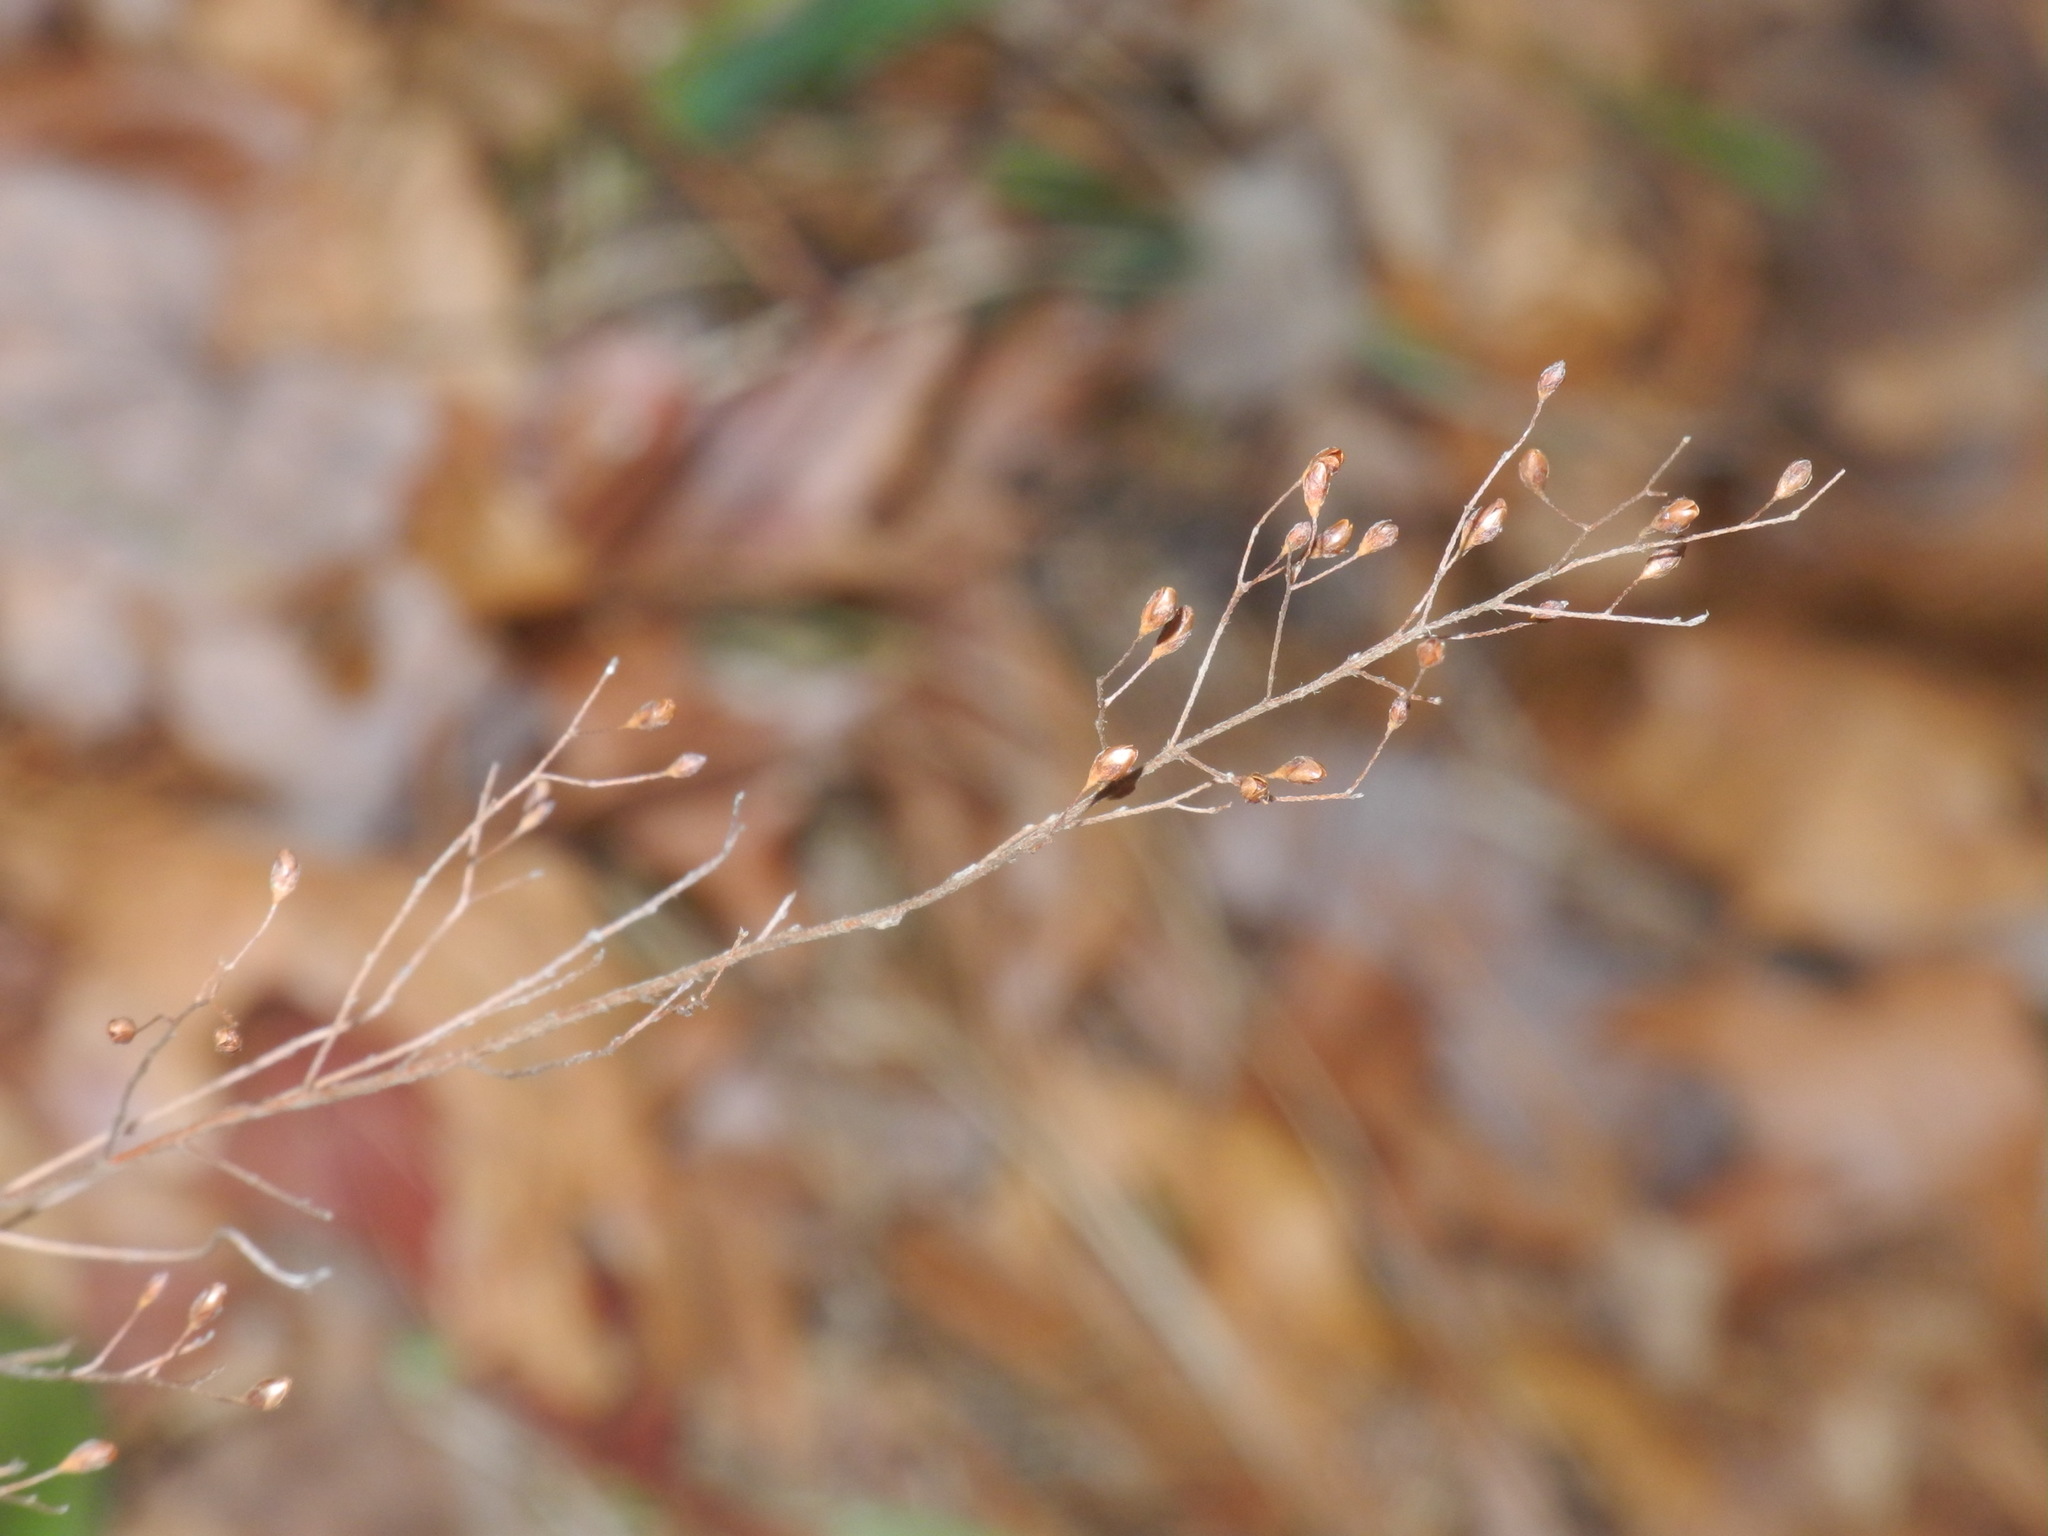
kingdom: Plantae
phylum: Tracheophyta
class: Magnoliopsida
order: Malvales
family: Cistaceae
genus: Lechea
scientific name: Lechea racemulosa
